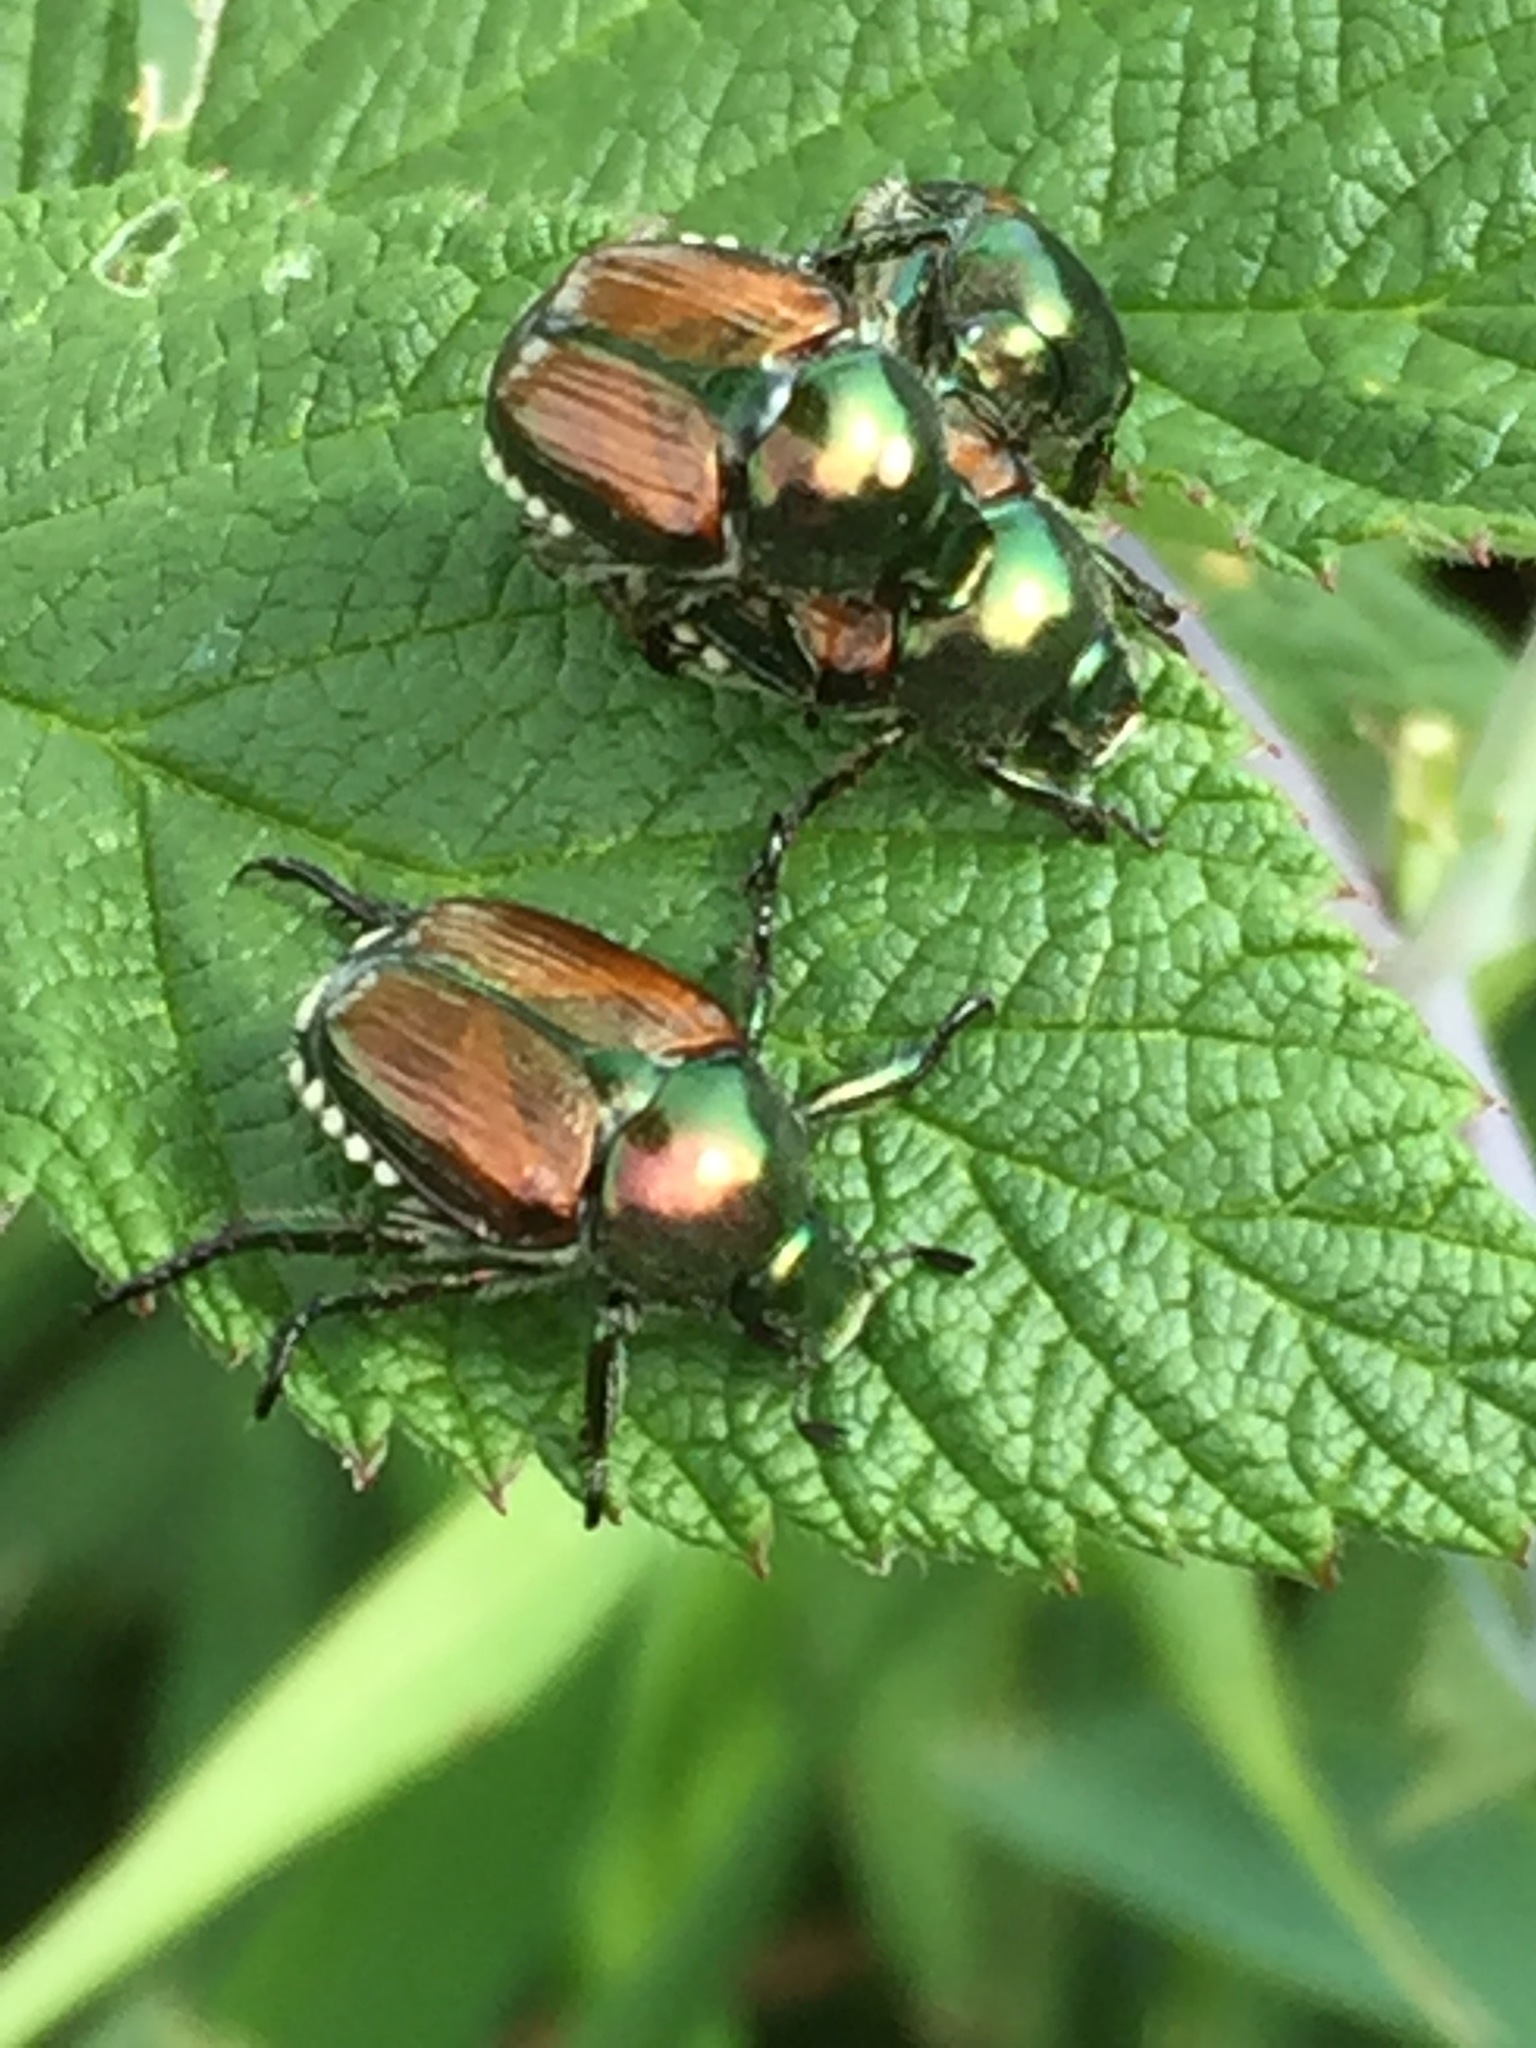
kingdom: Animalia
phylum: Arthropoda
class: Insecta
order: Coleoptera
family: Scarabaeidae
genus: Popillia
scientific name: Popillia japonica
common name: Japanese beetle
